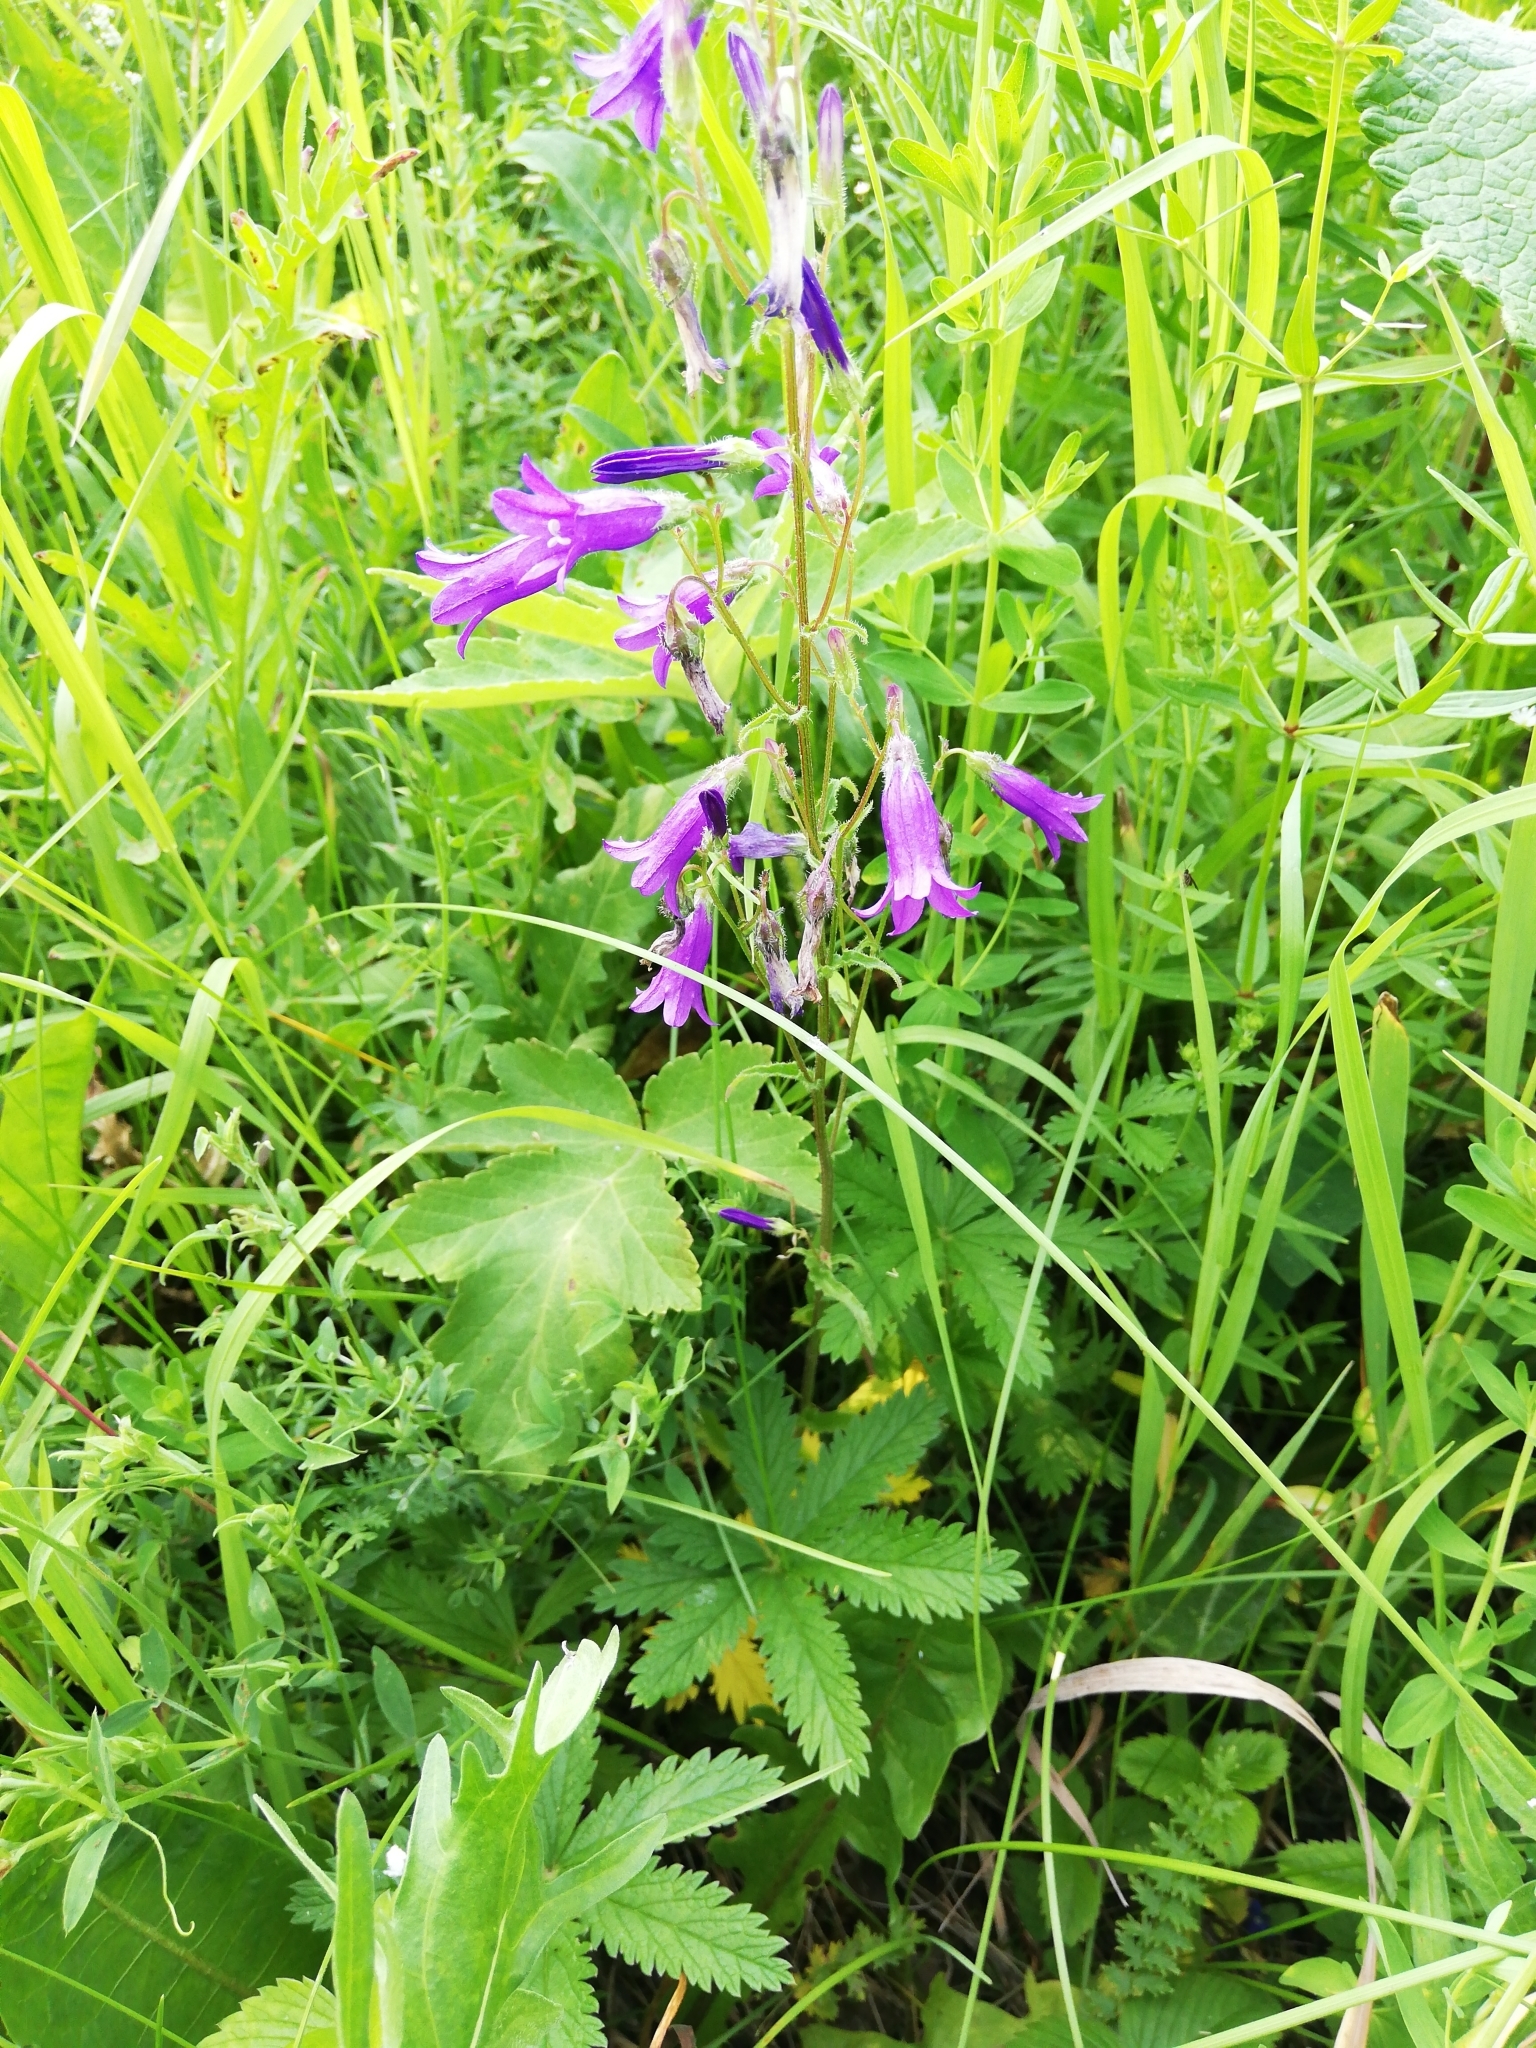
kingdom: Plantae
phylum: Tracheophyta
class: Magnoliopsida
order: Asterales
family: Campanulaceae
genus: Campanula
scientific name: Campanula sibirica
